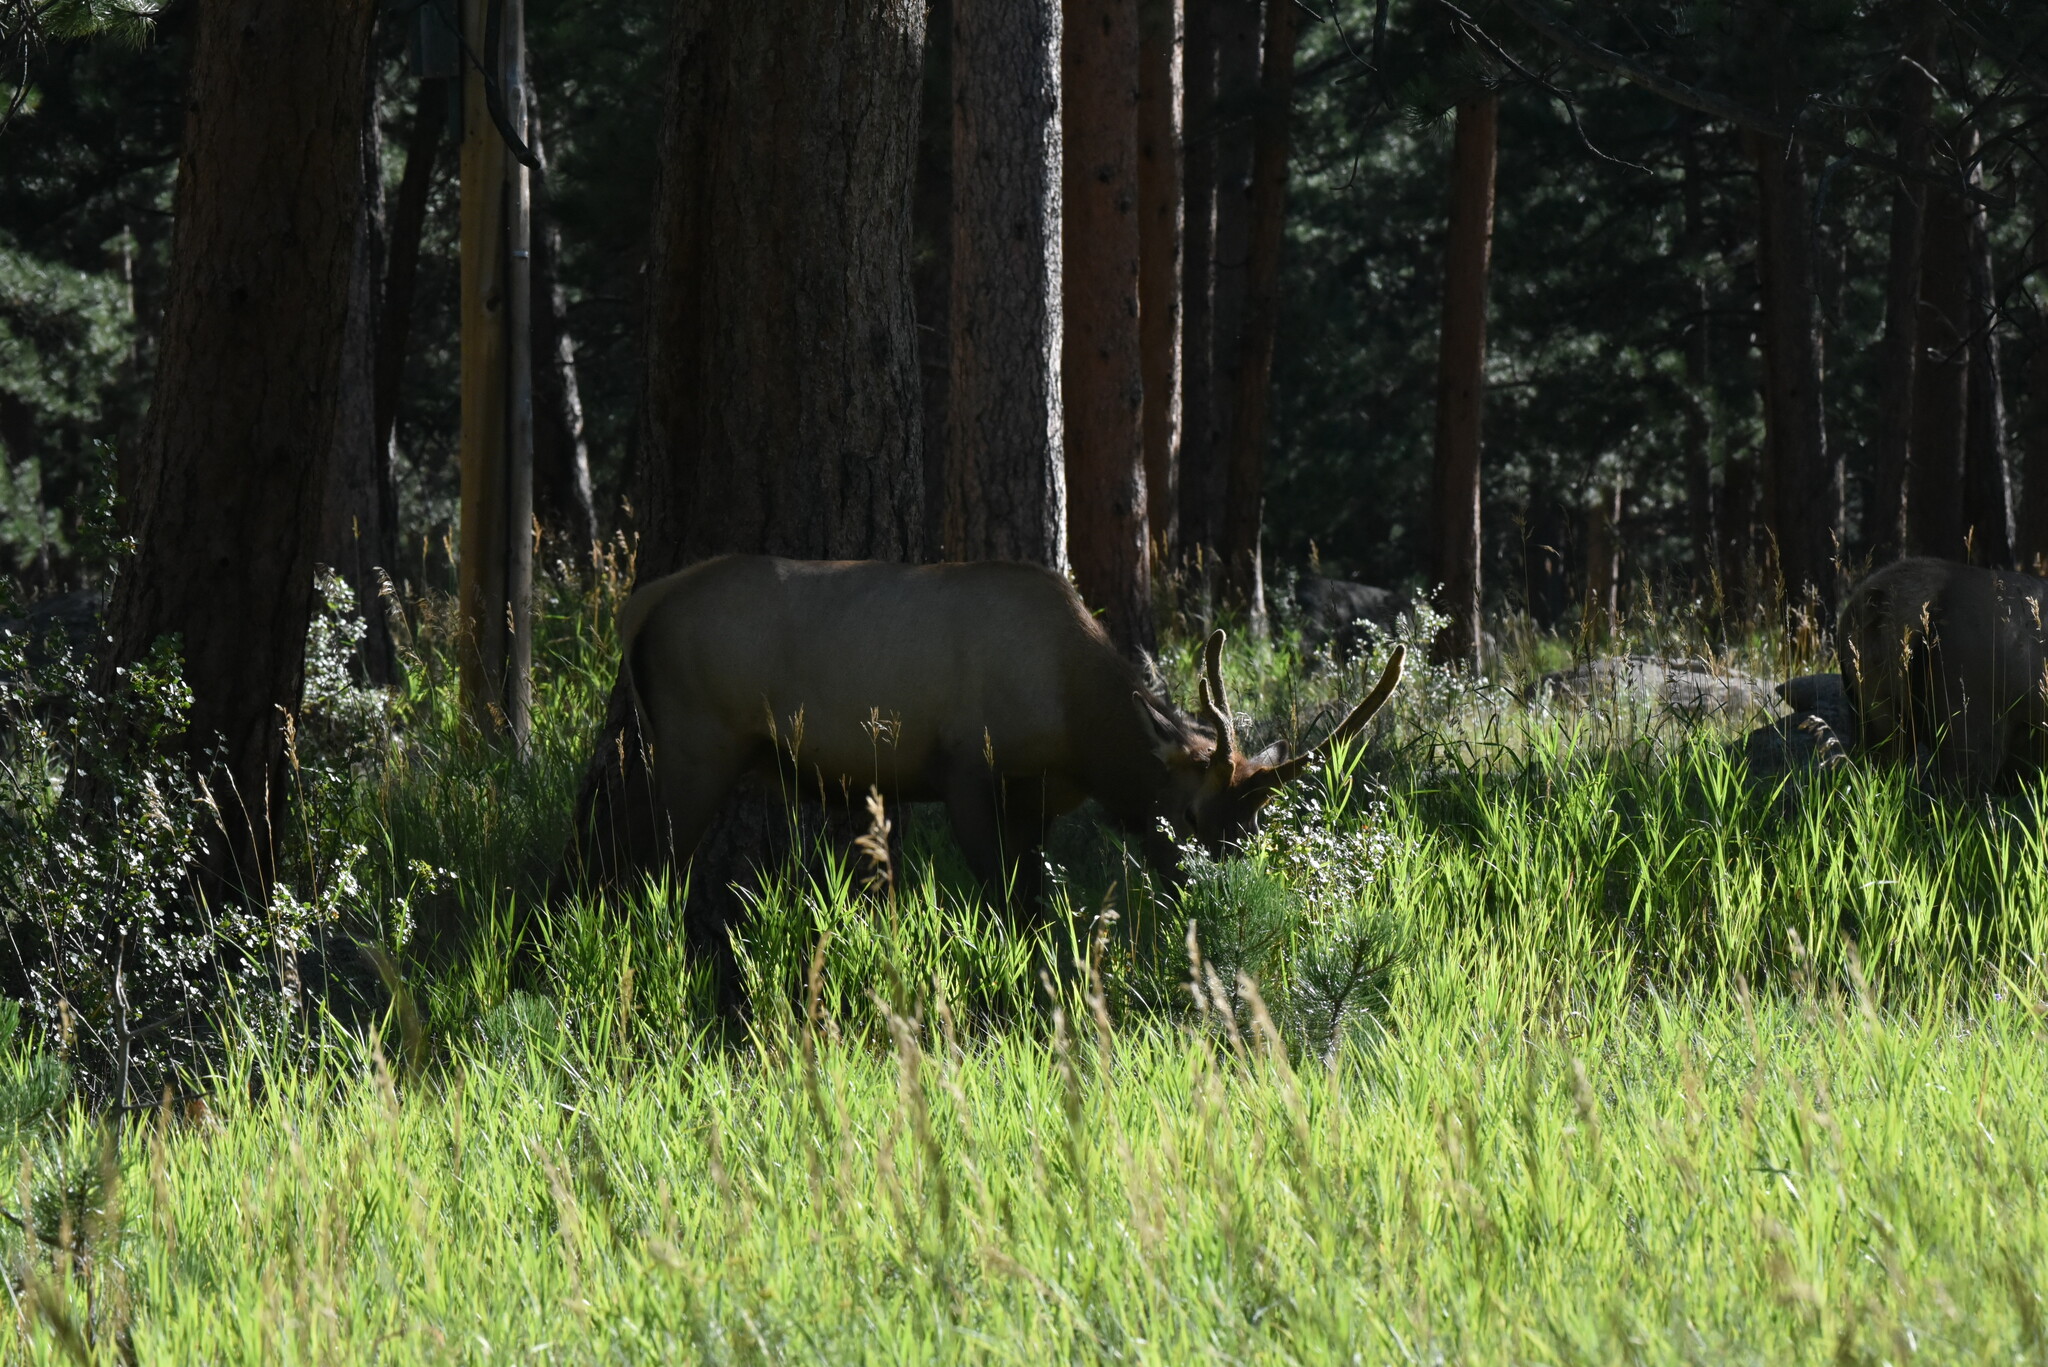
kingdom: Animalia
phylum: Chordata
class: Mammalia
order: Artiodactyla
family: Cervidae
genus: Cervus
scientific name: Cervus elaphus
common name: Red deer
